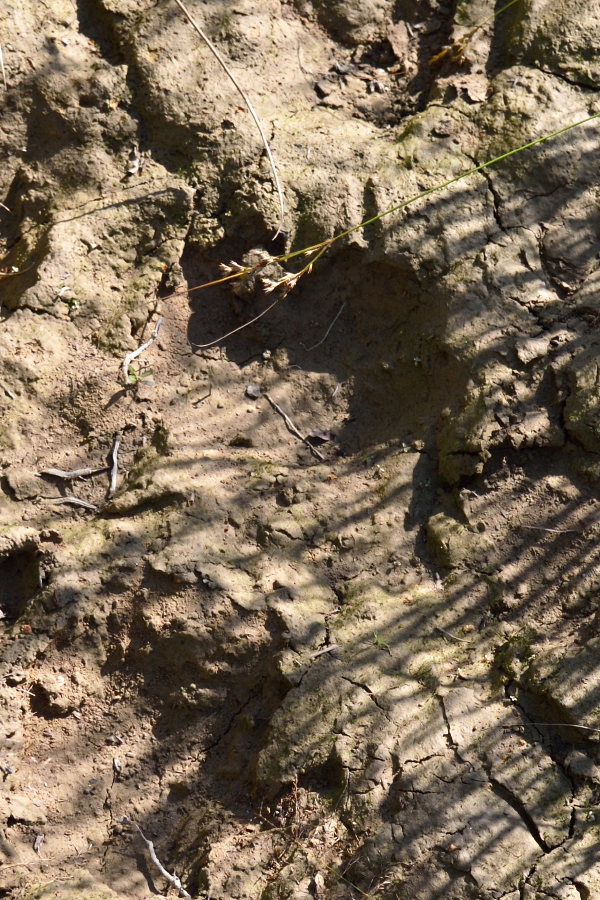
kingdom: Animalia
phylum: Chordata
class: Mammalia
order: Carnivora
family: Ursidae
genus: Ursus
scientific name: Ursus arctos
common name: Brown bear
